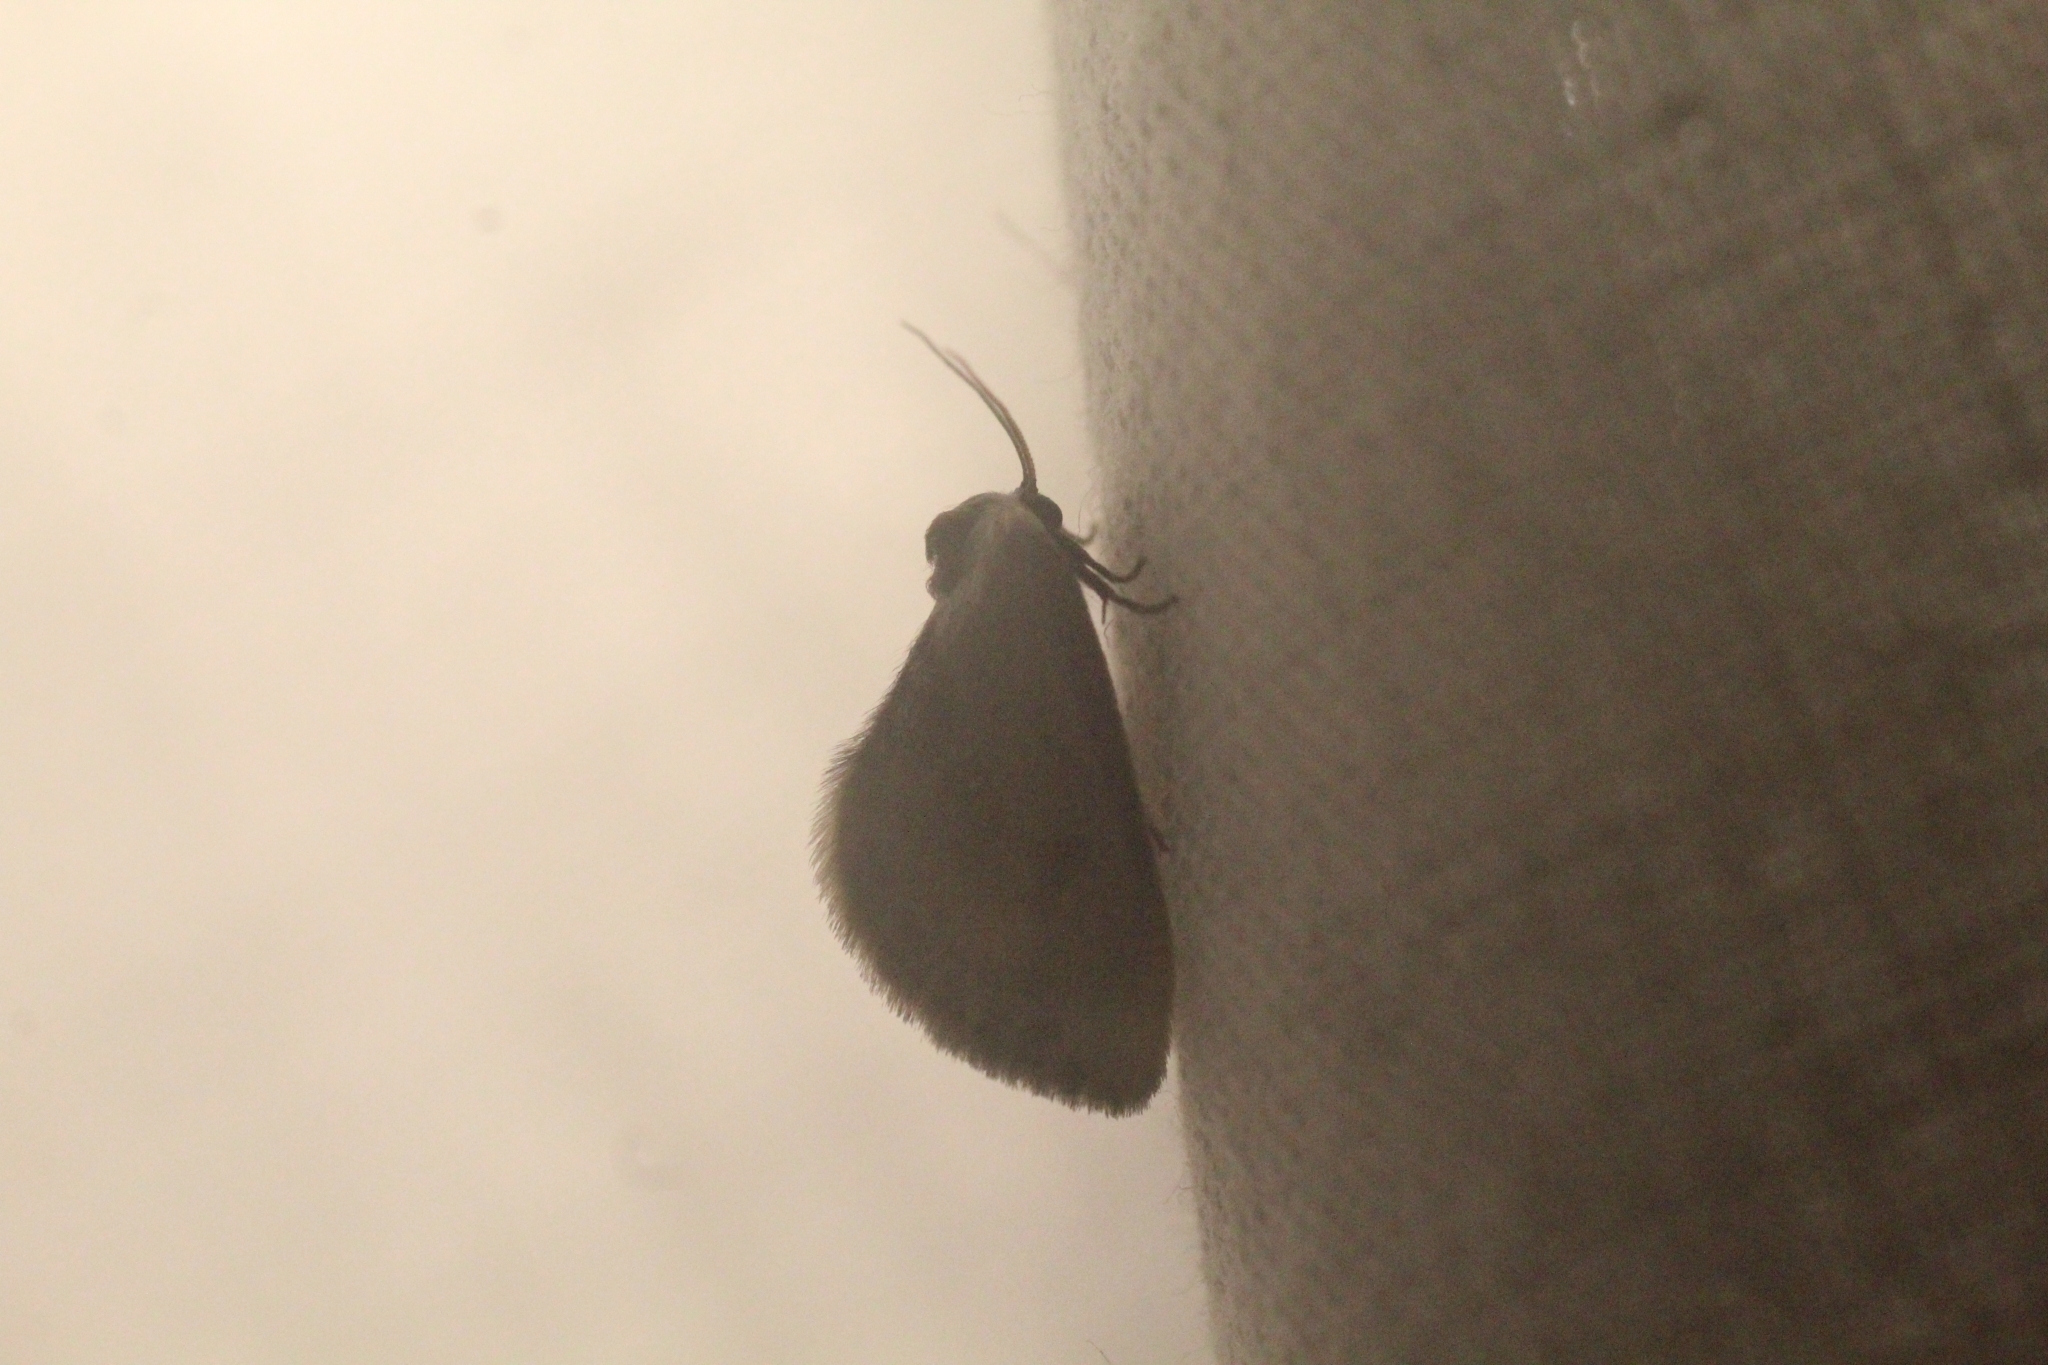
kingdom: Animalia
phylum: Arthropoda
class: Insecta
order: Lepidoptera
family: Drepanidae
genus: Cilix
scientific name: Cilix glaucata
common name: Chinese character
